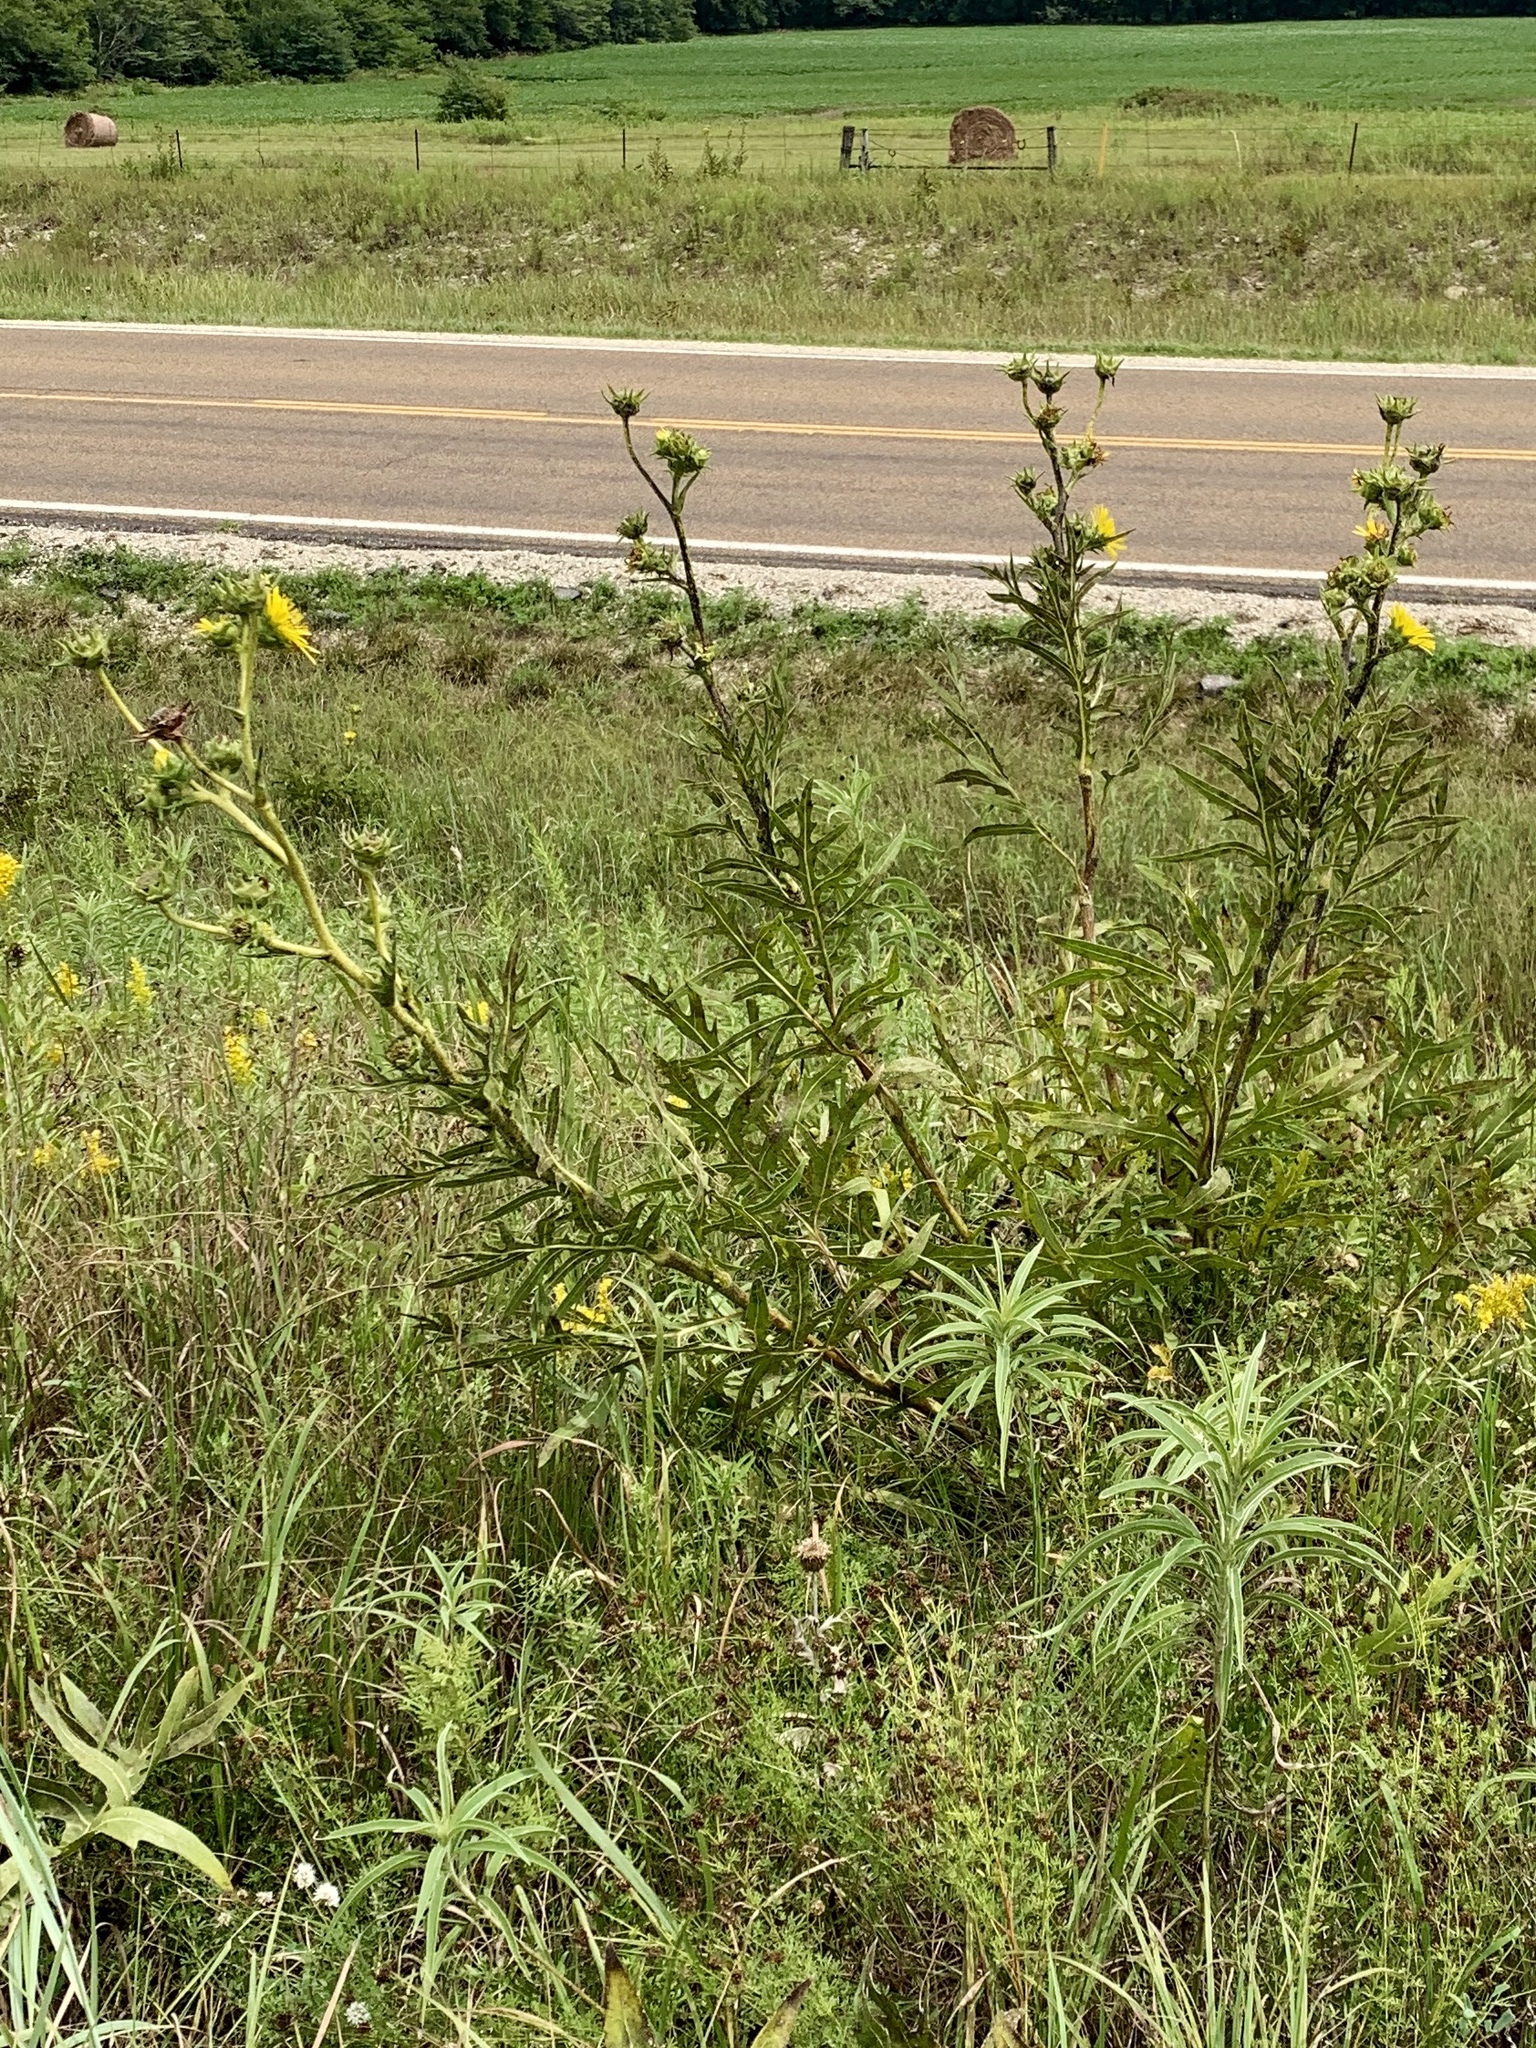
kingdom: Plantae
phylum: Tracheophyta
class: Magnoliopsida
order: Asterales
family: Asteraceae
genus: Silphium
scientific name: Silphium laciniatum
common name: Polarplant
